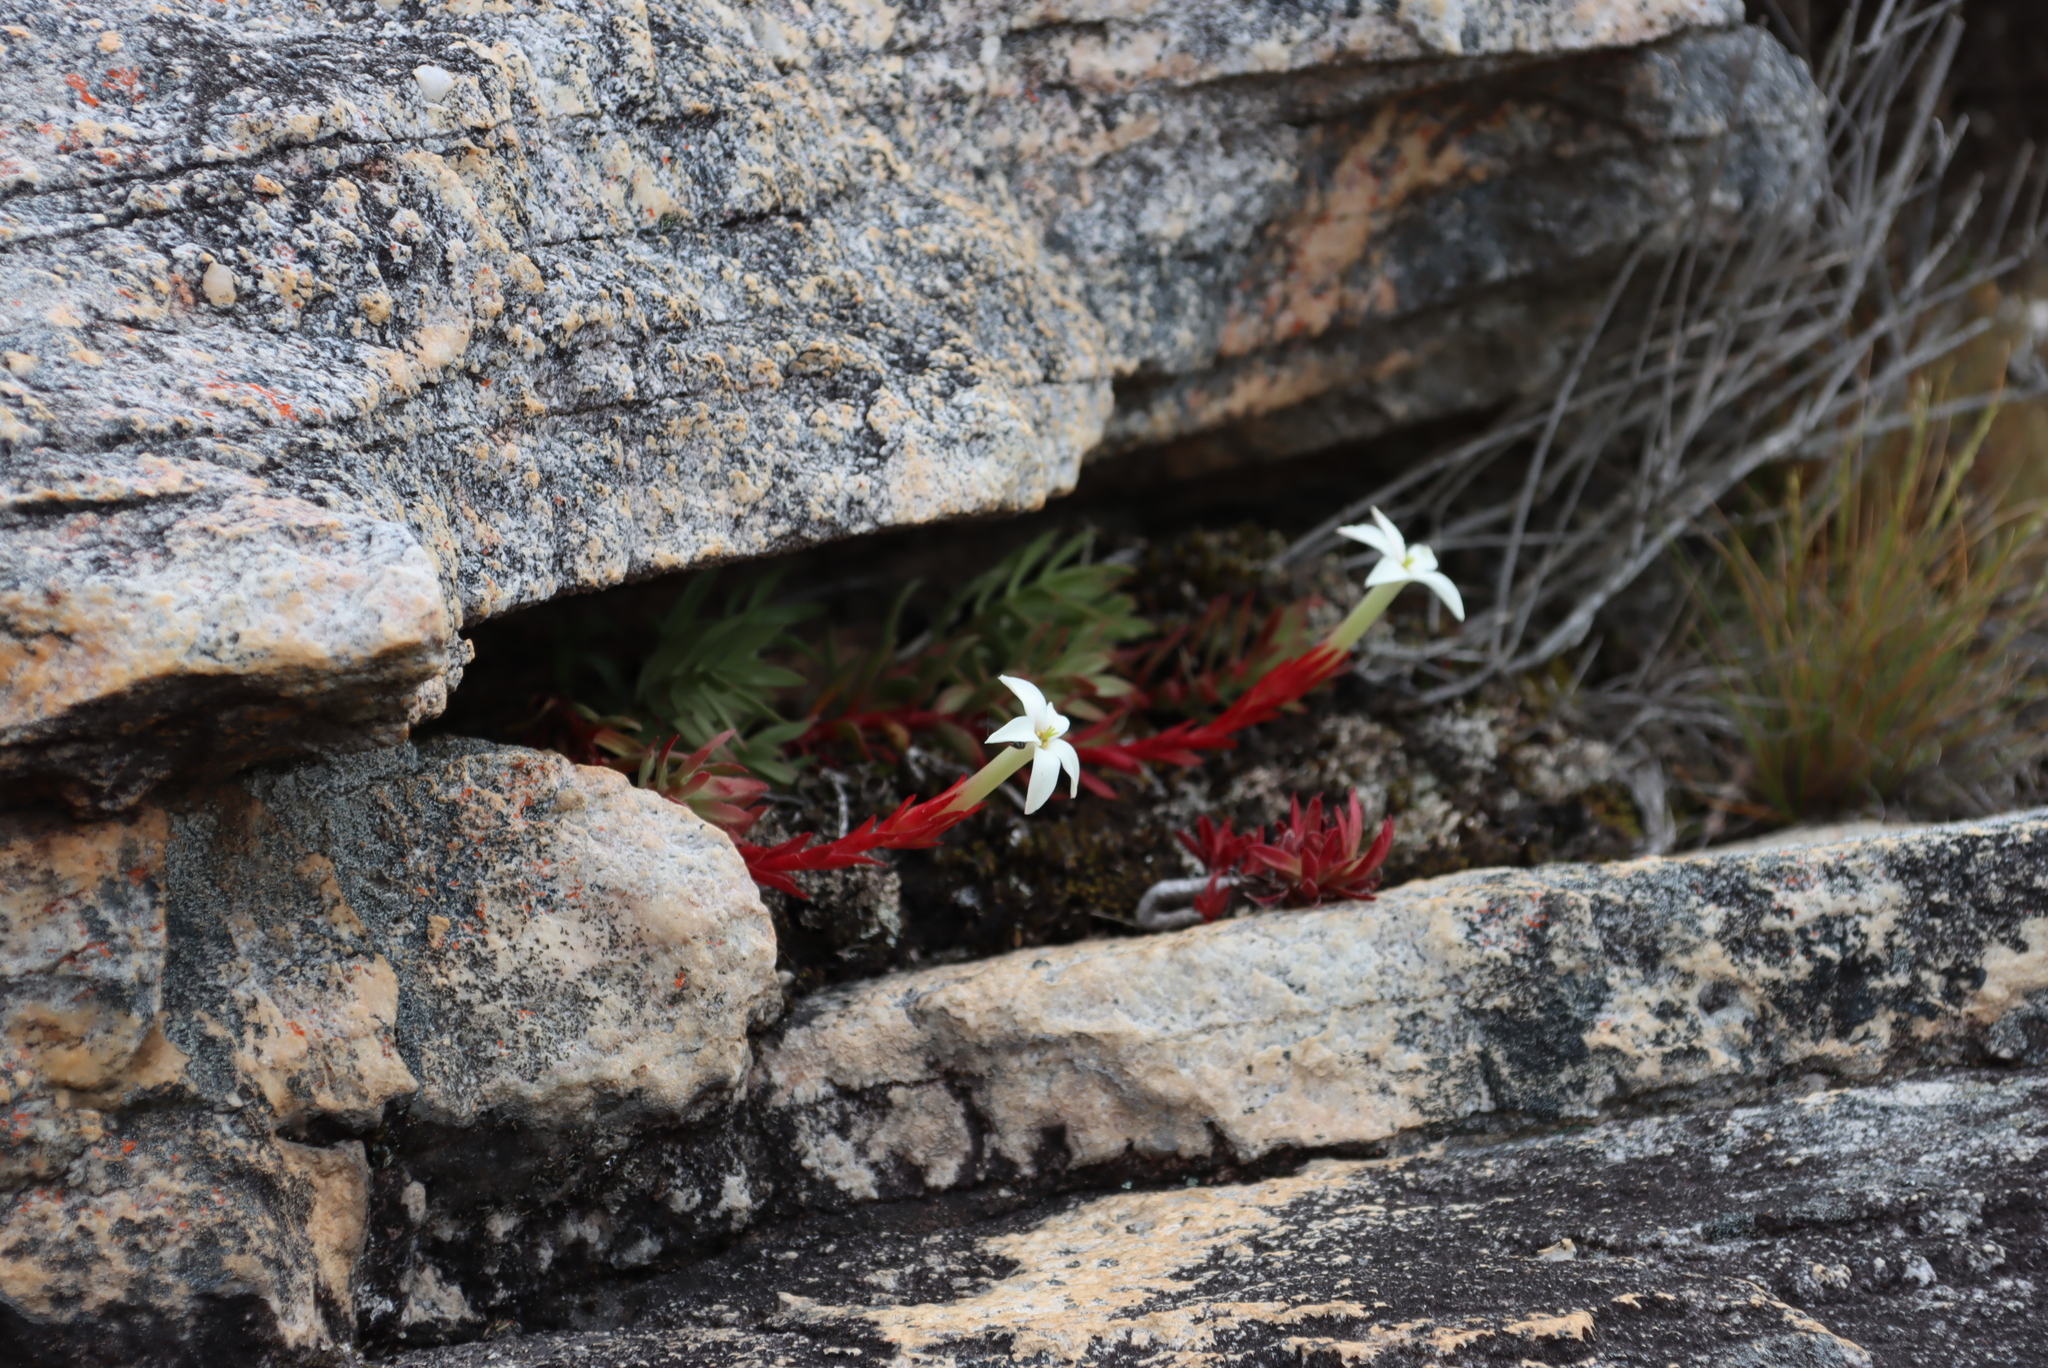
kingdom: Plantae
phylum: Tracheophyta
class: Magnoliopsida
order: Saxifragales
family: Crassulaceae
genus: Crassula
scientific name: Crassula obtusa
